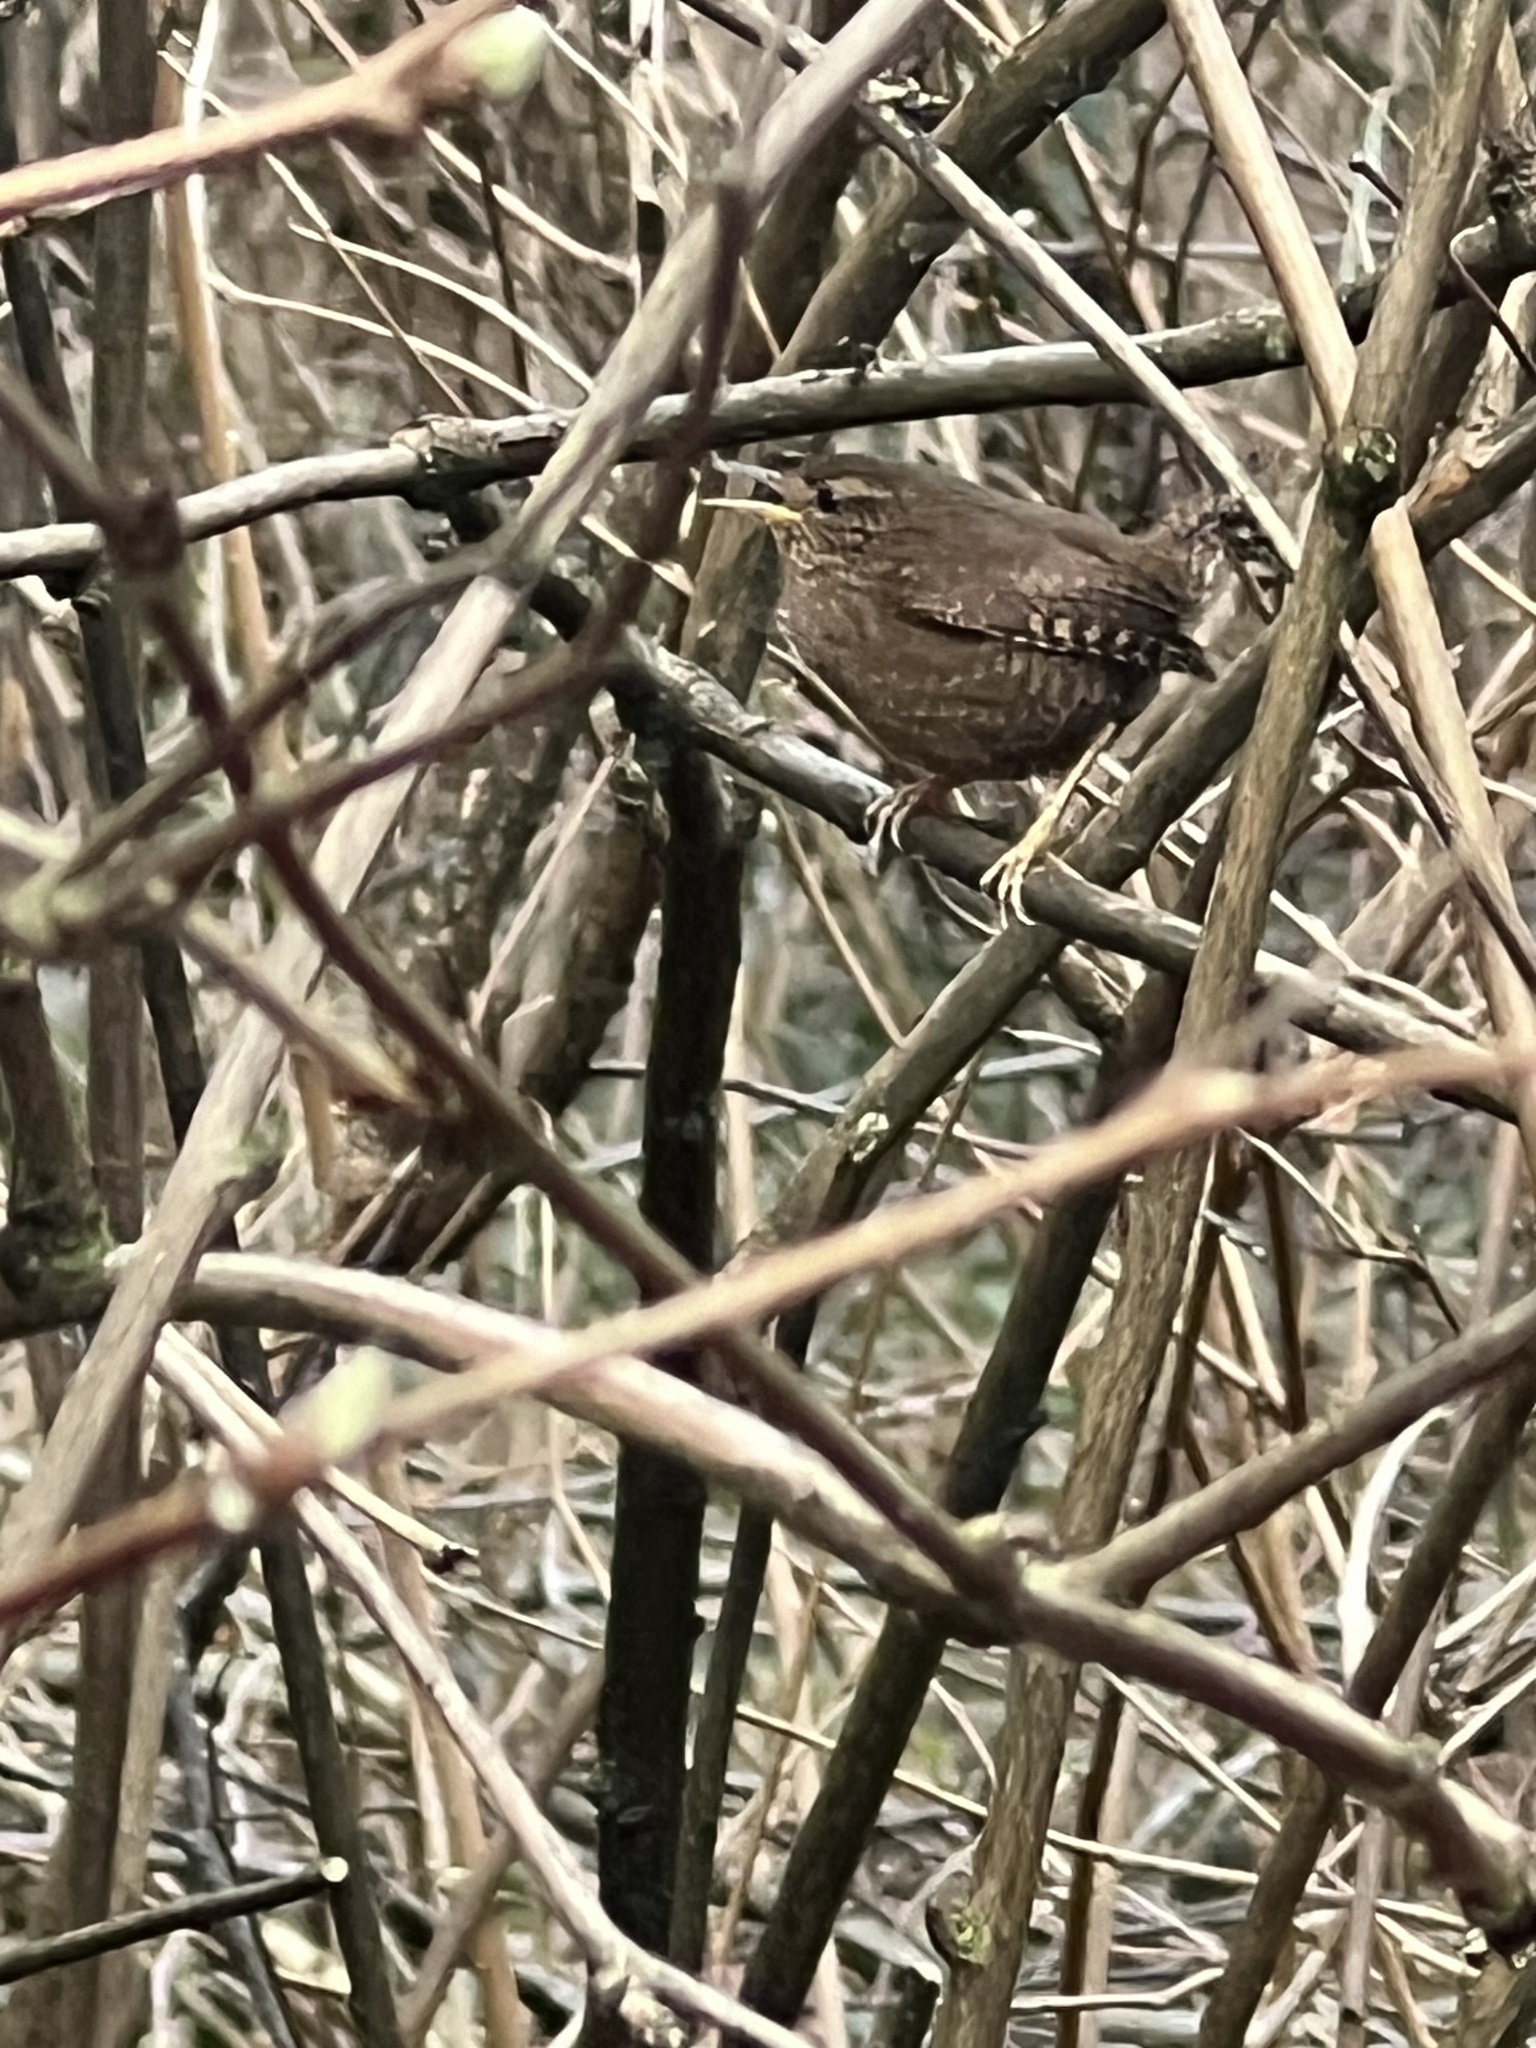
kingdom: Animalia
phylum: Chordata
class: Aves
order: Passeriformes
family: Troglodytidae
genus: Troglodytes
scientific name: Troglodytes pacificus
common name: Pacific wren
